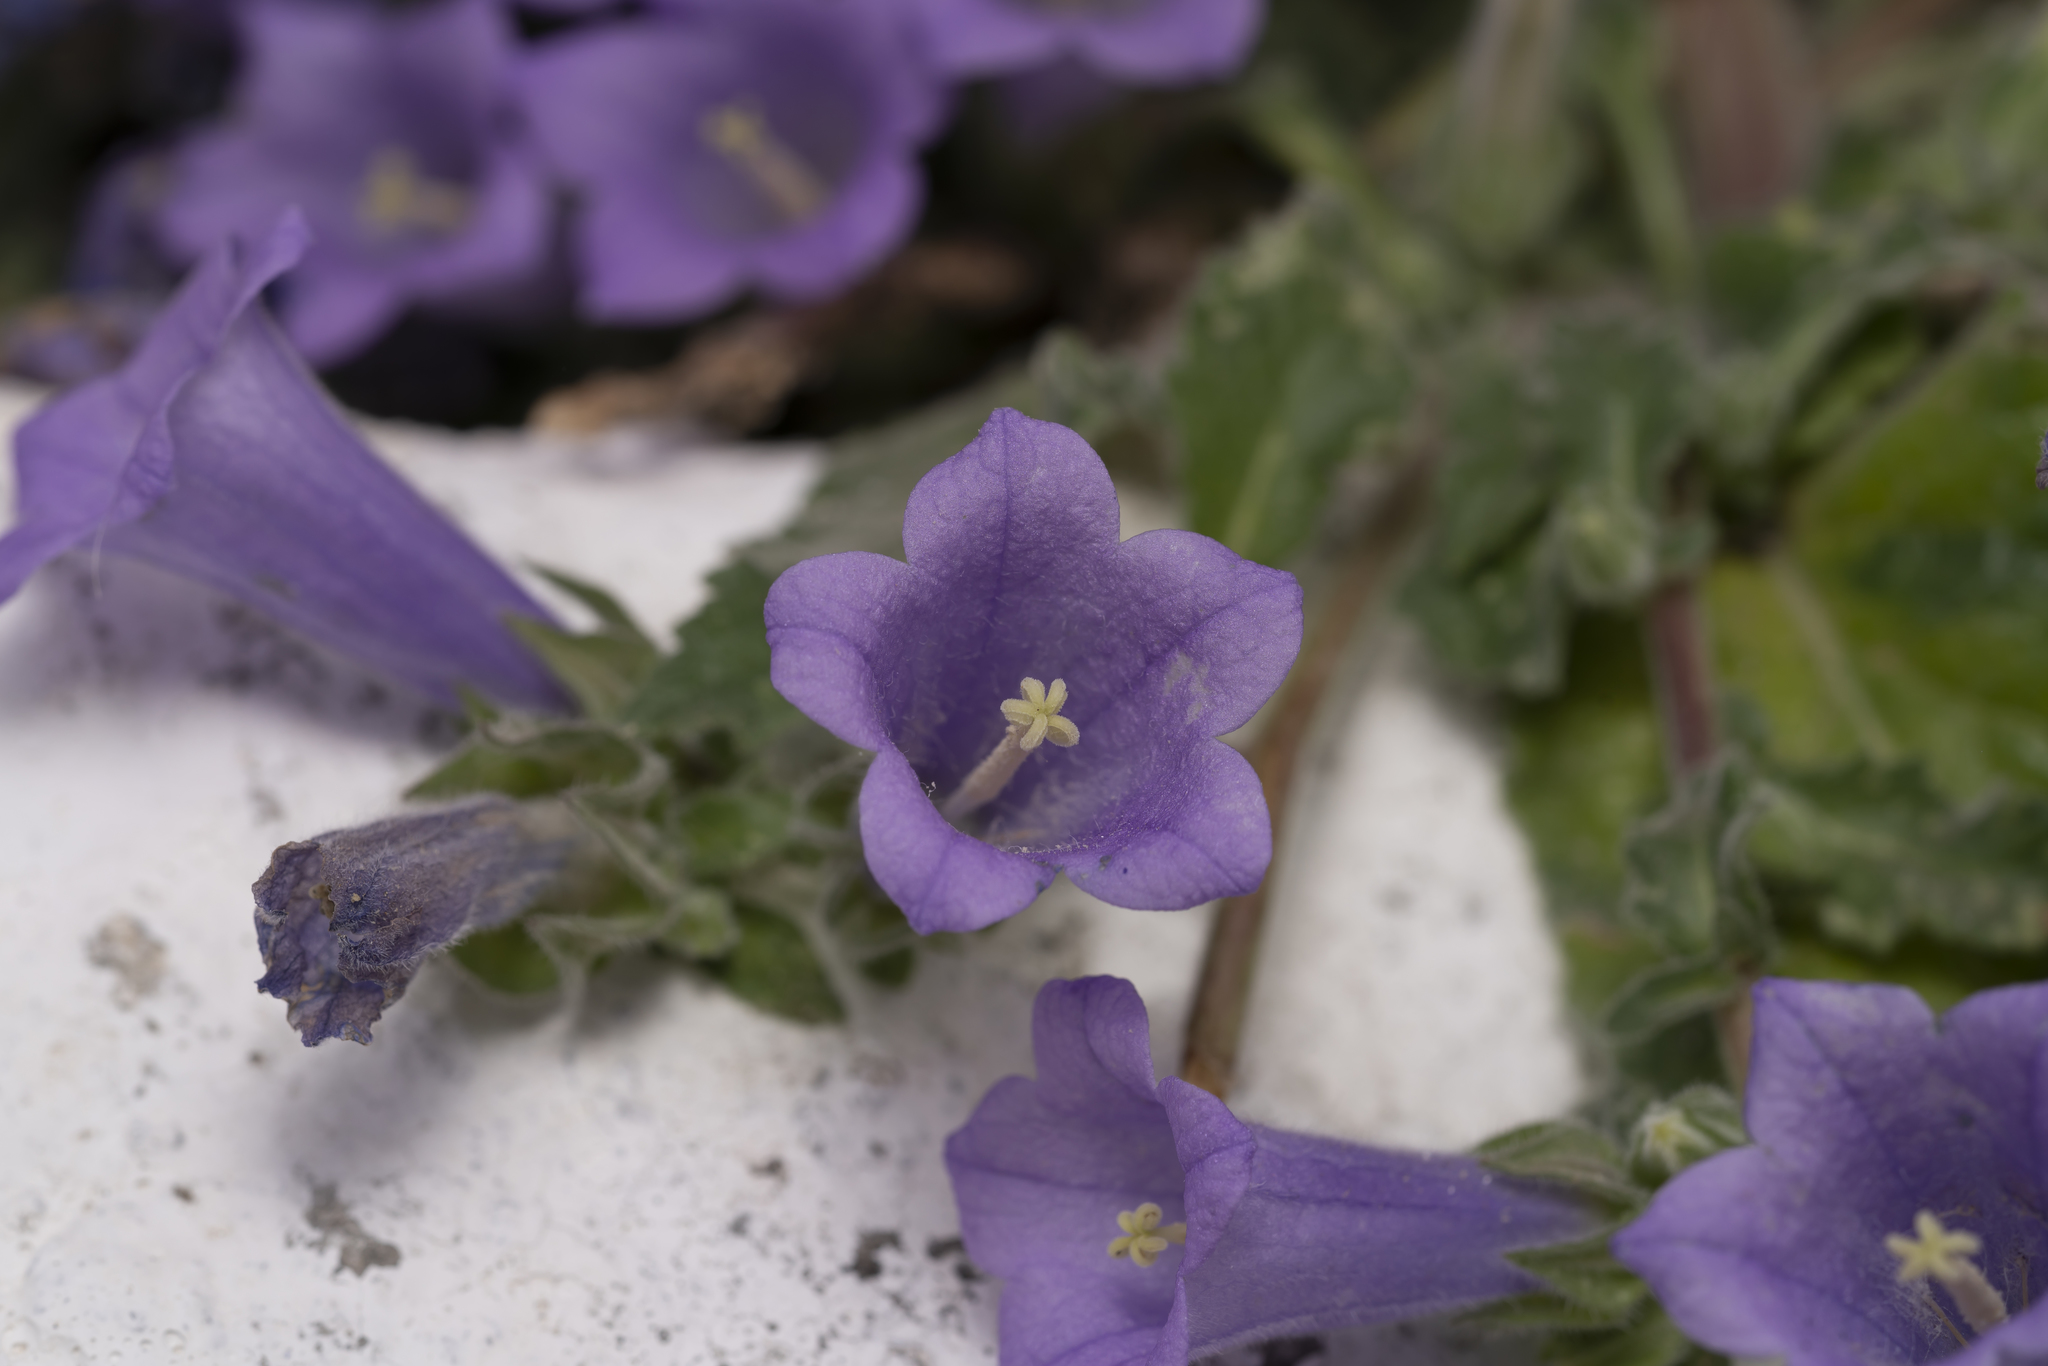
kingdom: Plantae
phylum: Tracheophyta
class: Magnoliopsida
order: Asterales
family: Campanulaceae
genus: Campanula
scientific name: Campanula hagielia
